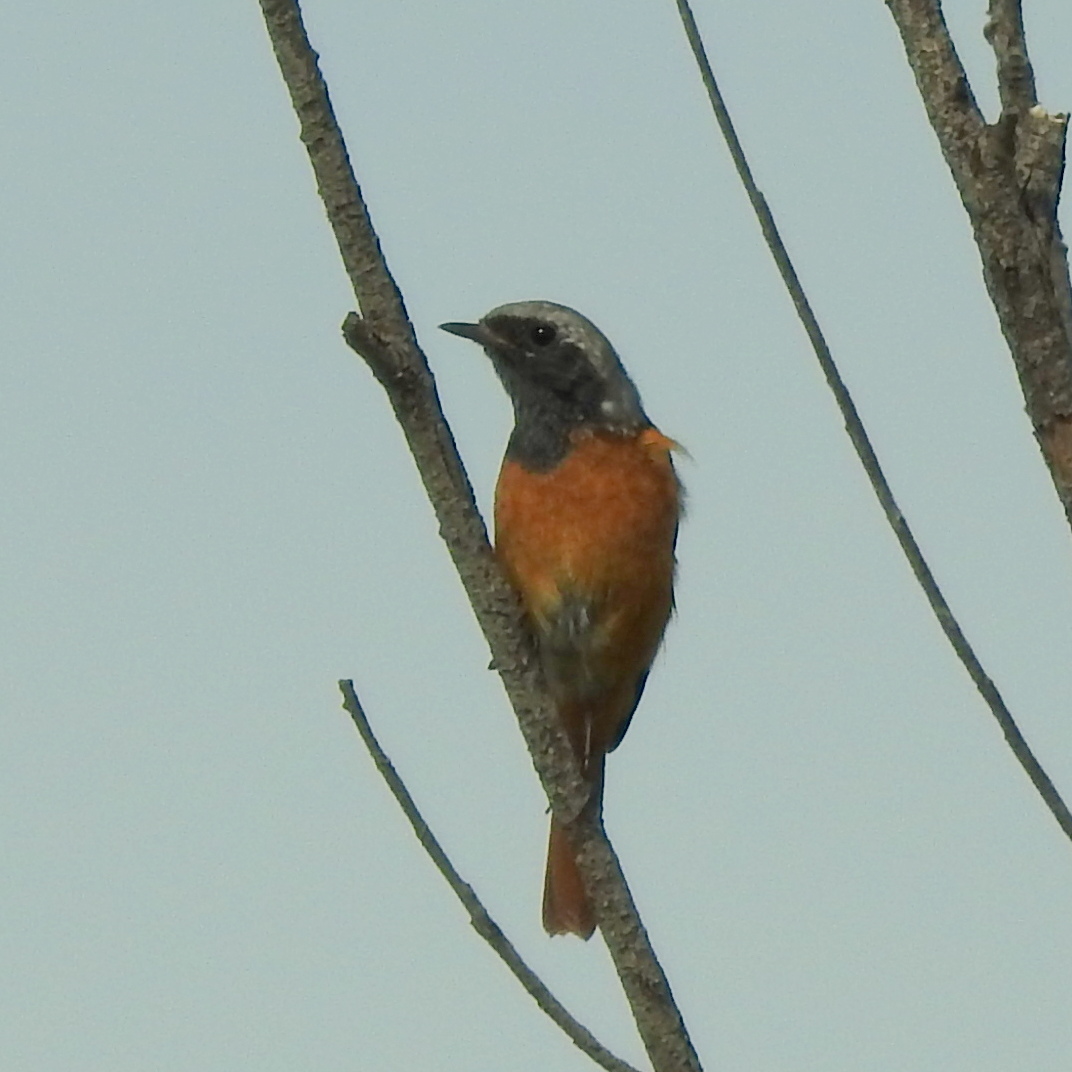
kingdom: Animalia
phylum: Chordata
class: Aves
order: Passeriformes
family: Muscicapidae
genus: Phoenicurus
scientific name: Phoenicurus auroreus
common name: Daurian redstart
